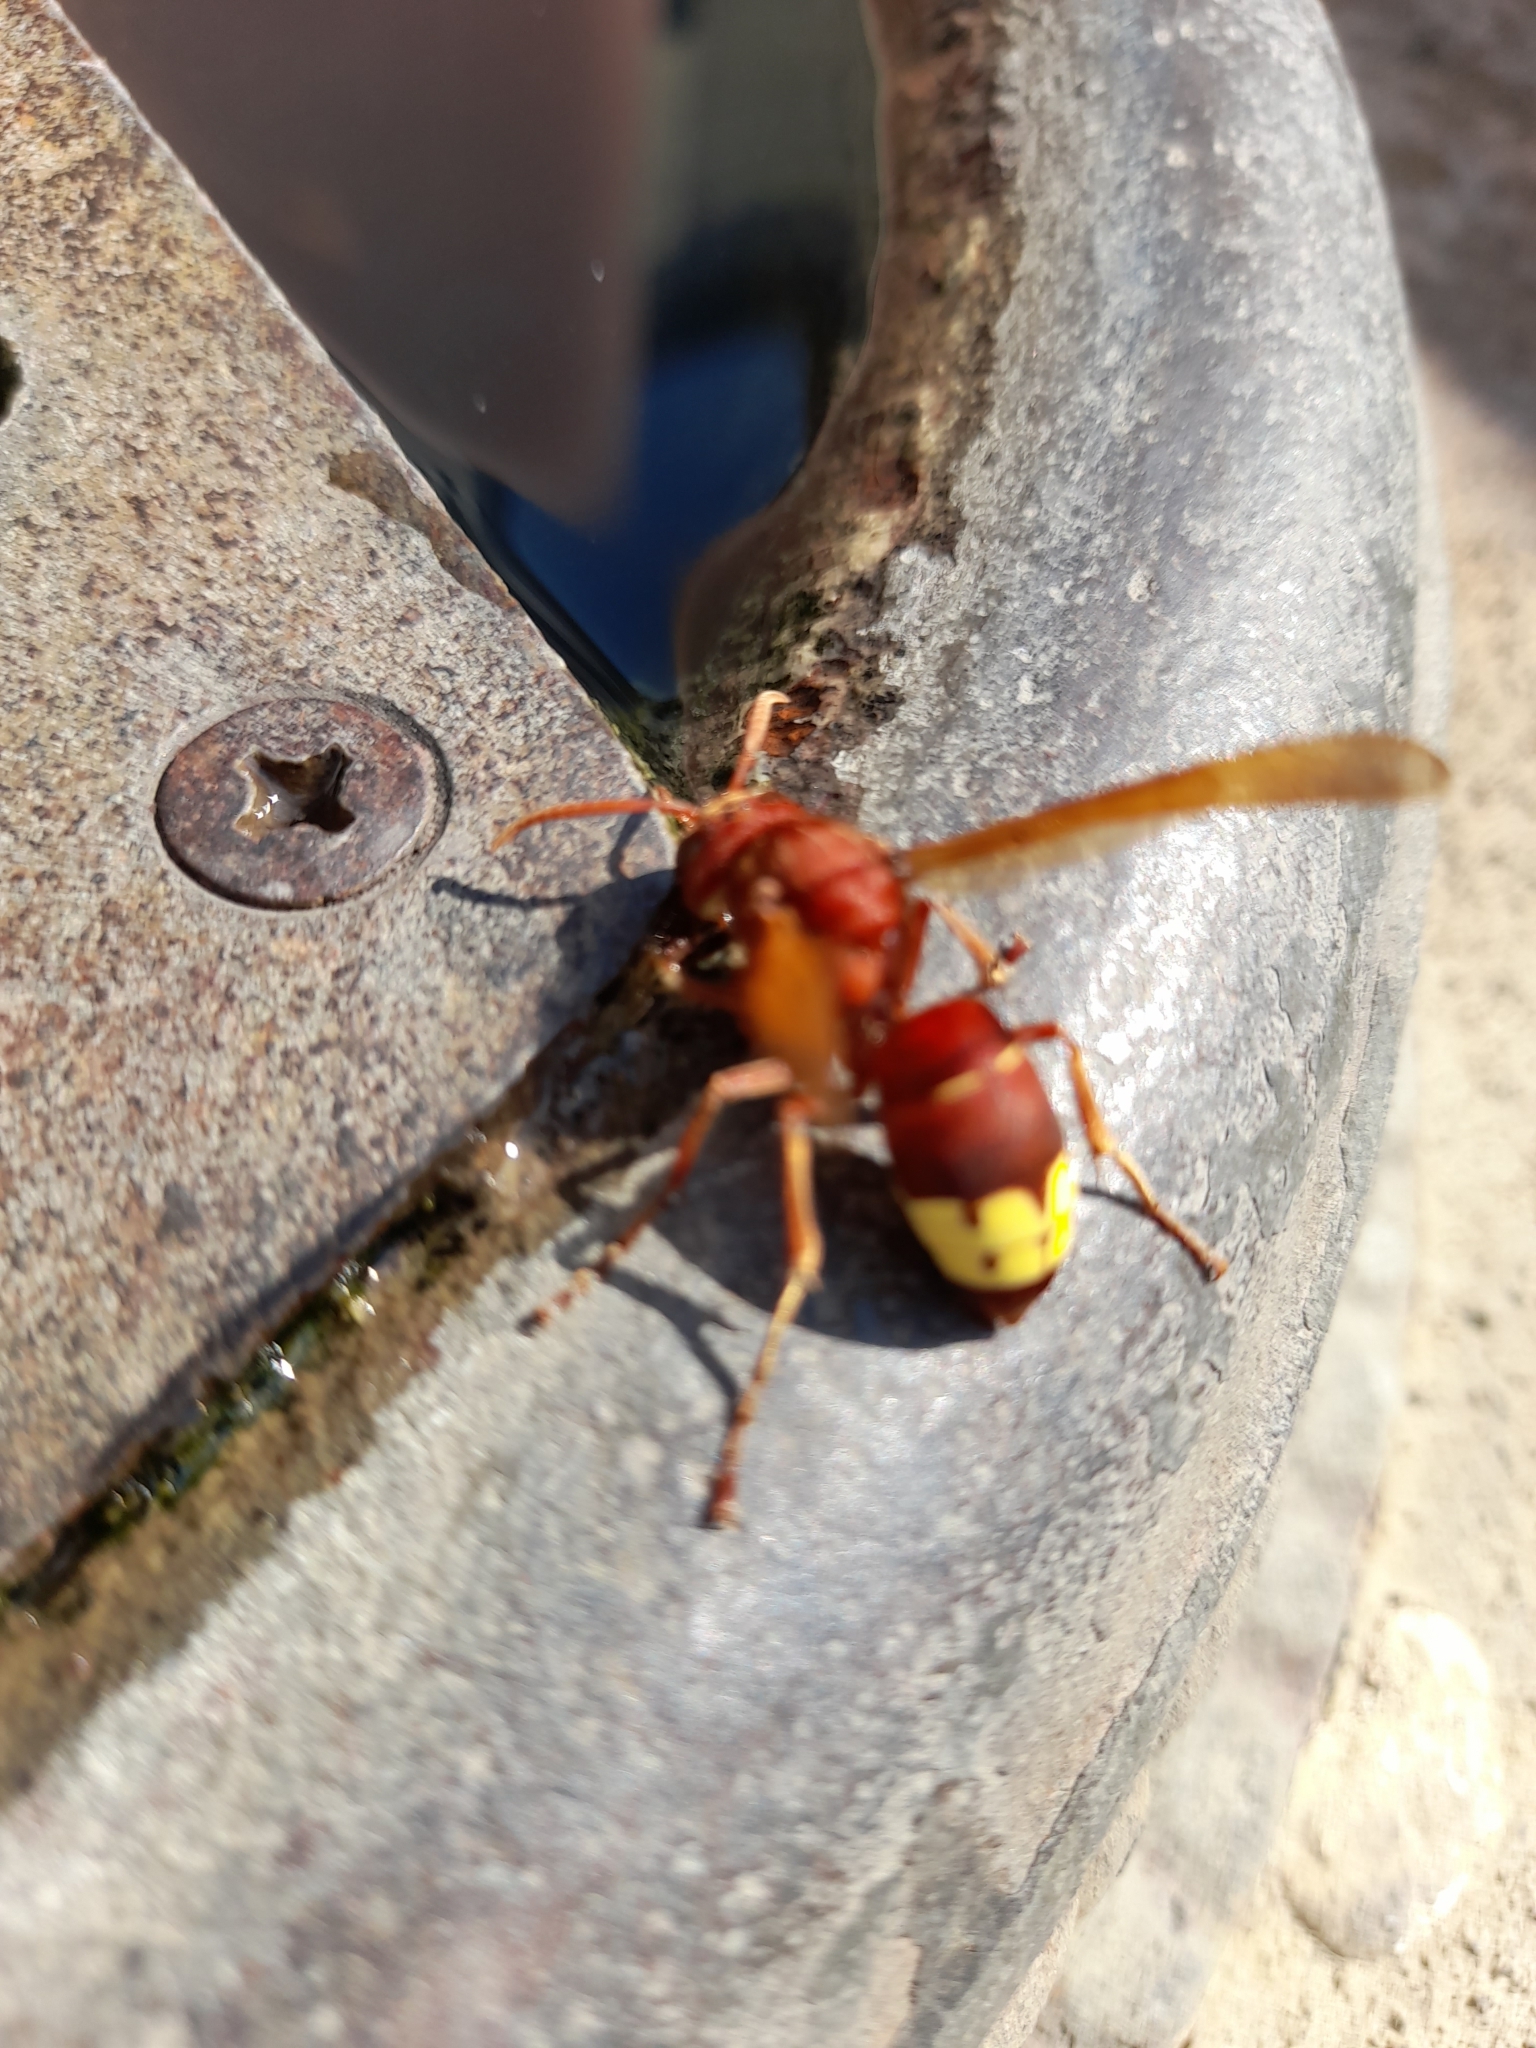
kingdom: Animalia
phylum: Arthropoda
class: Insecta
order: Hymenoptera
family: Vespidae
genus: Vespa
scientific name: Vespa orientalis
